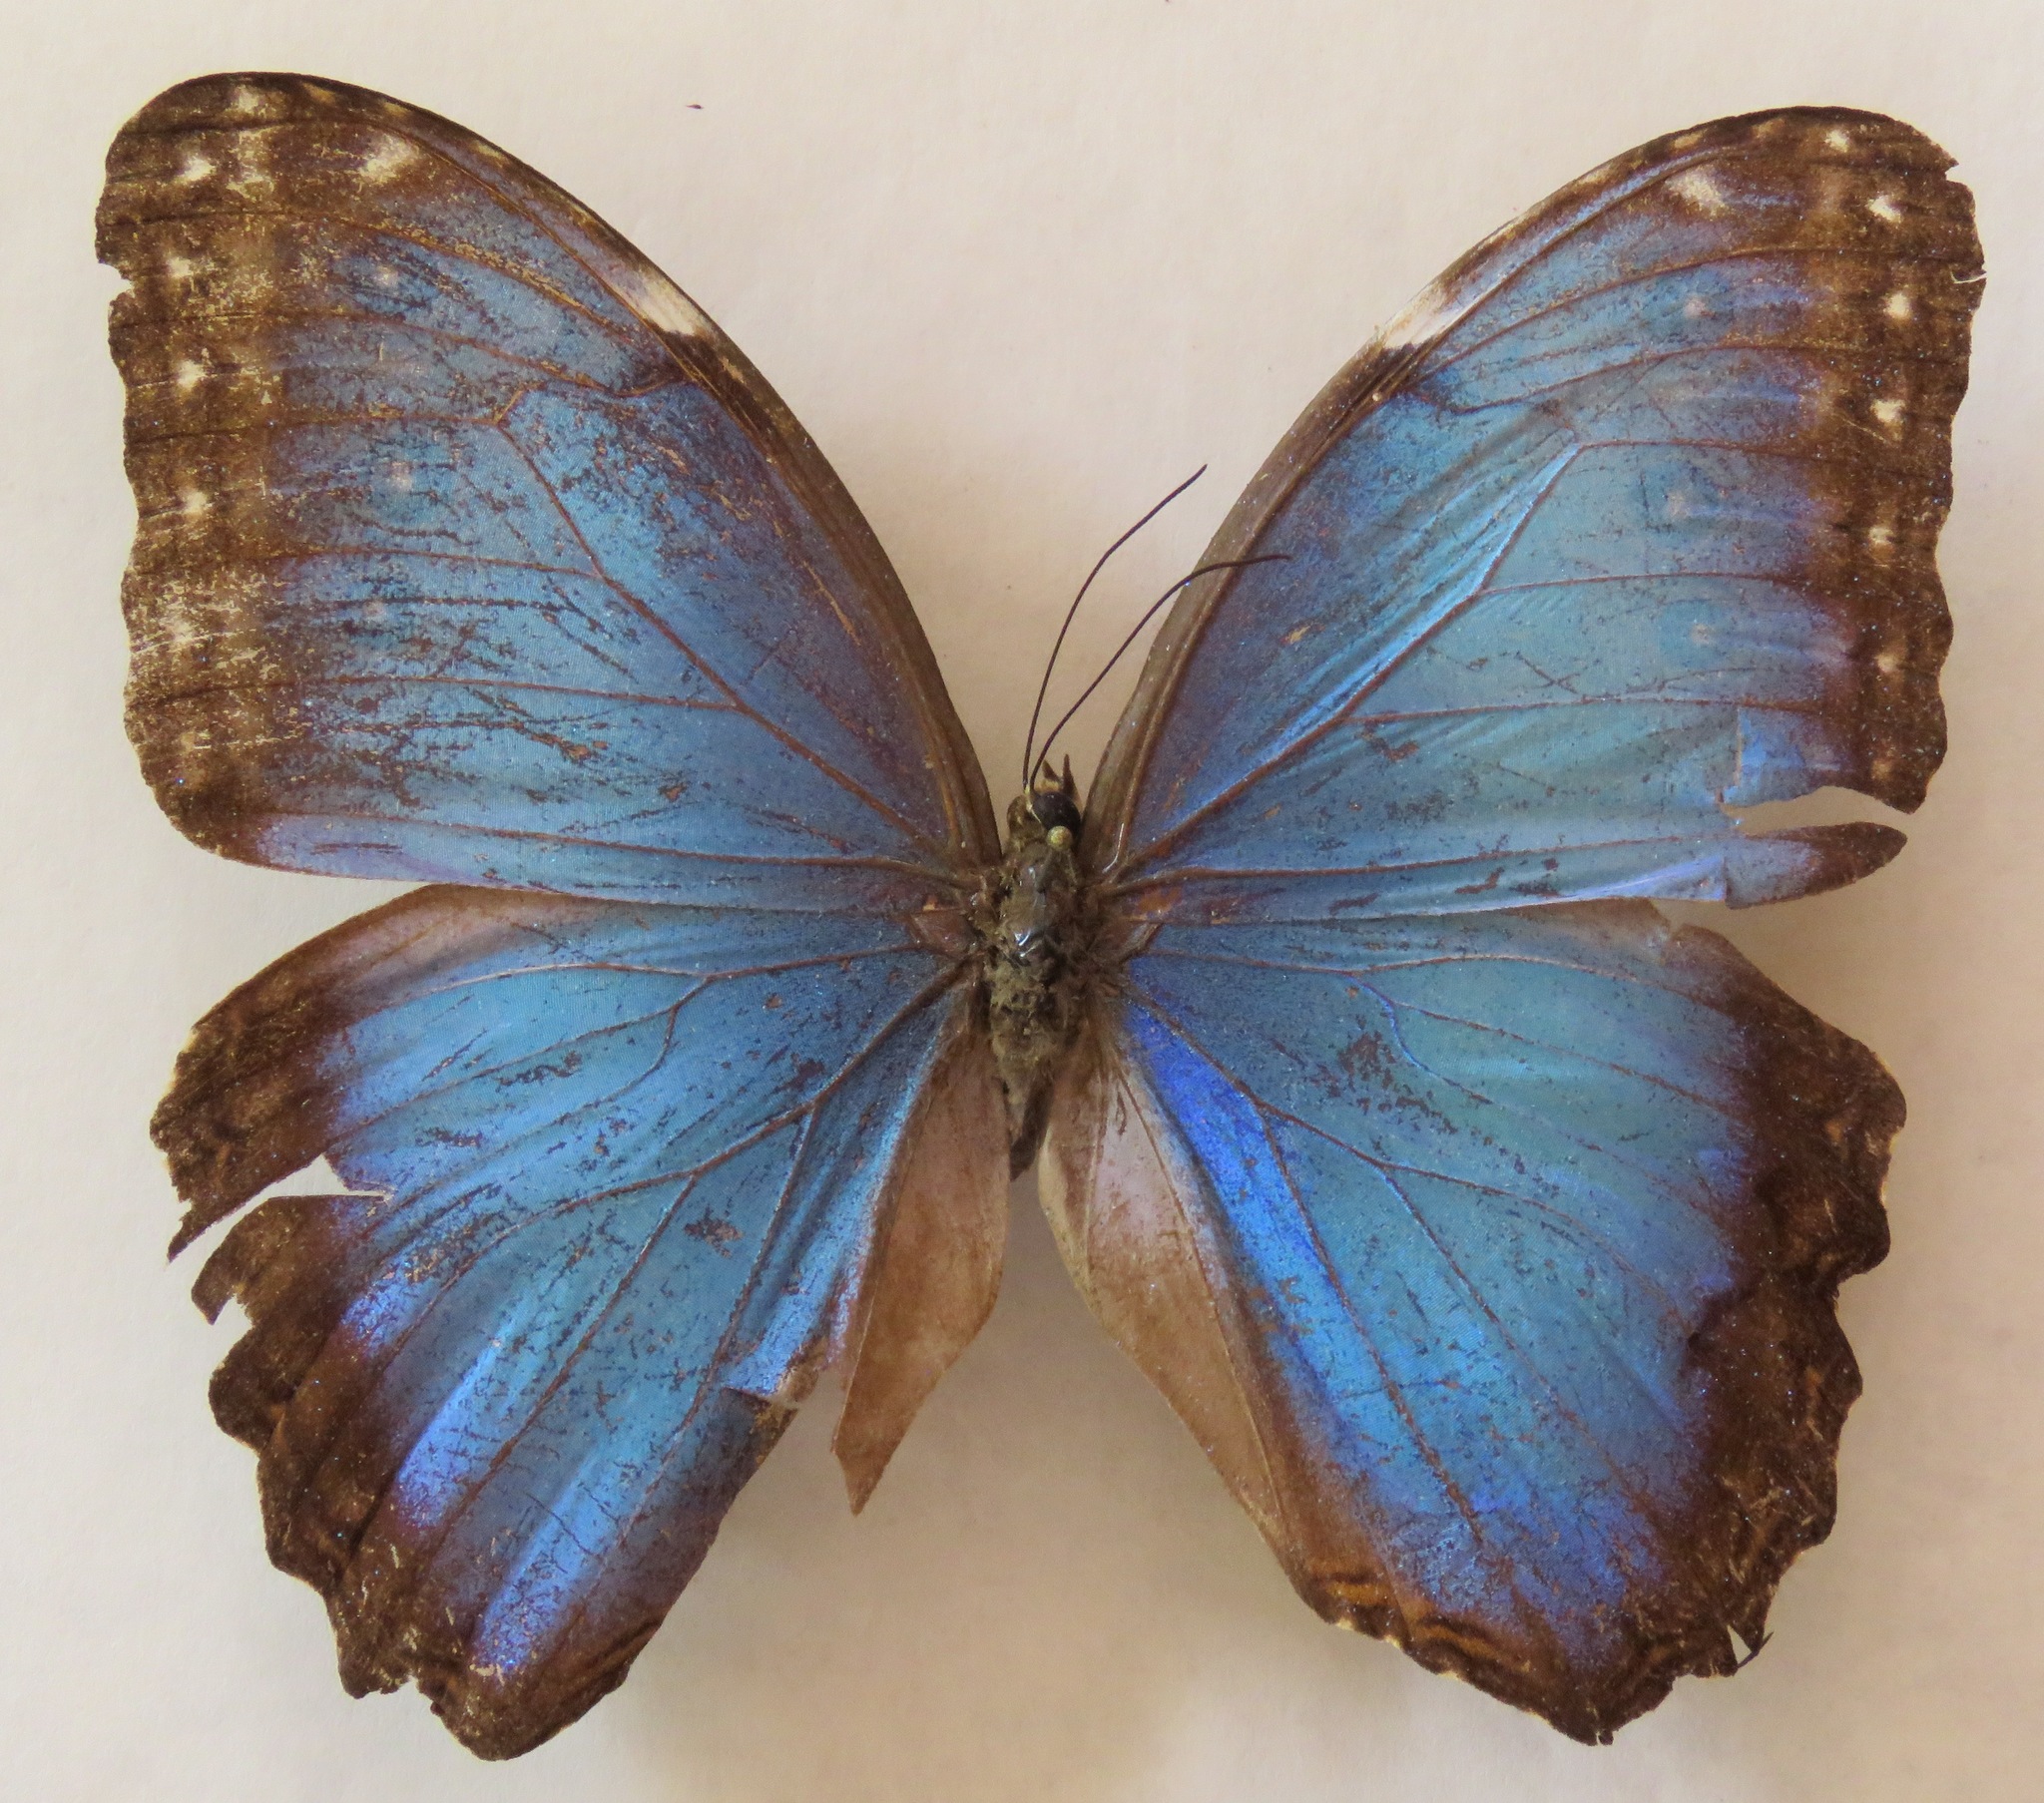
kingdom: Animalia
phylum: Arthropoda
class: Insecta
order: Lepidoptera
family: Nymphalidae
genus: Morpho
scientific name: Morpho helenor
